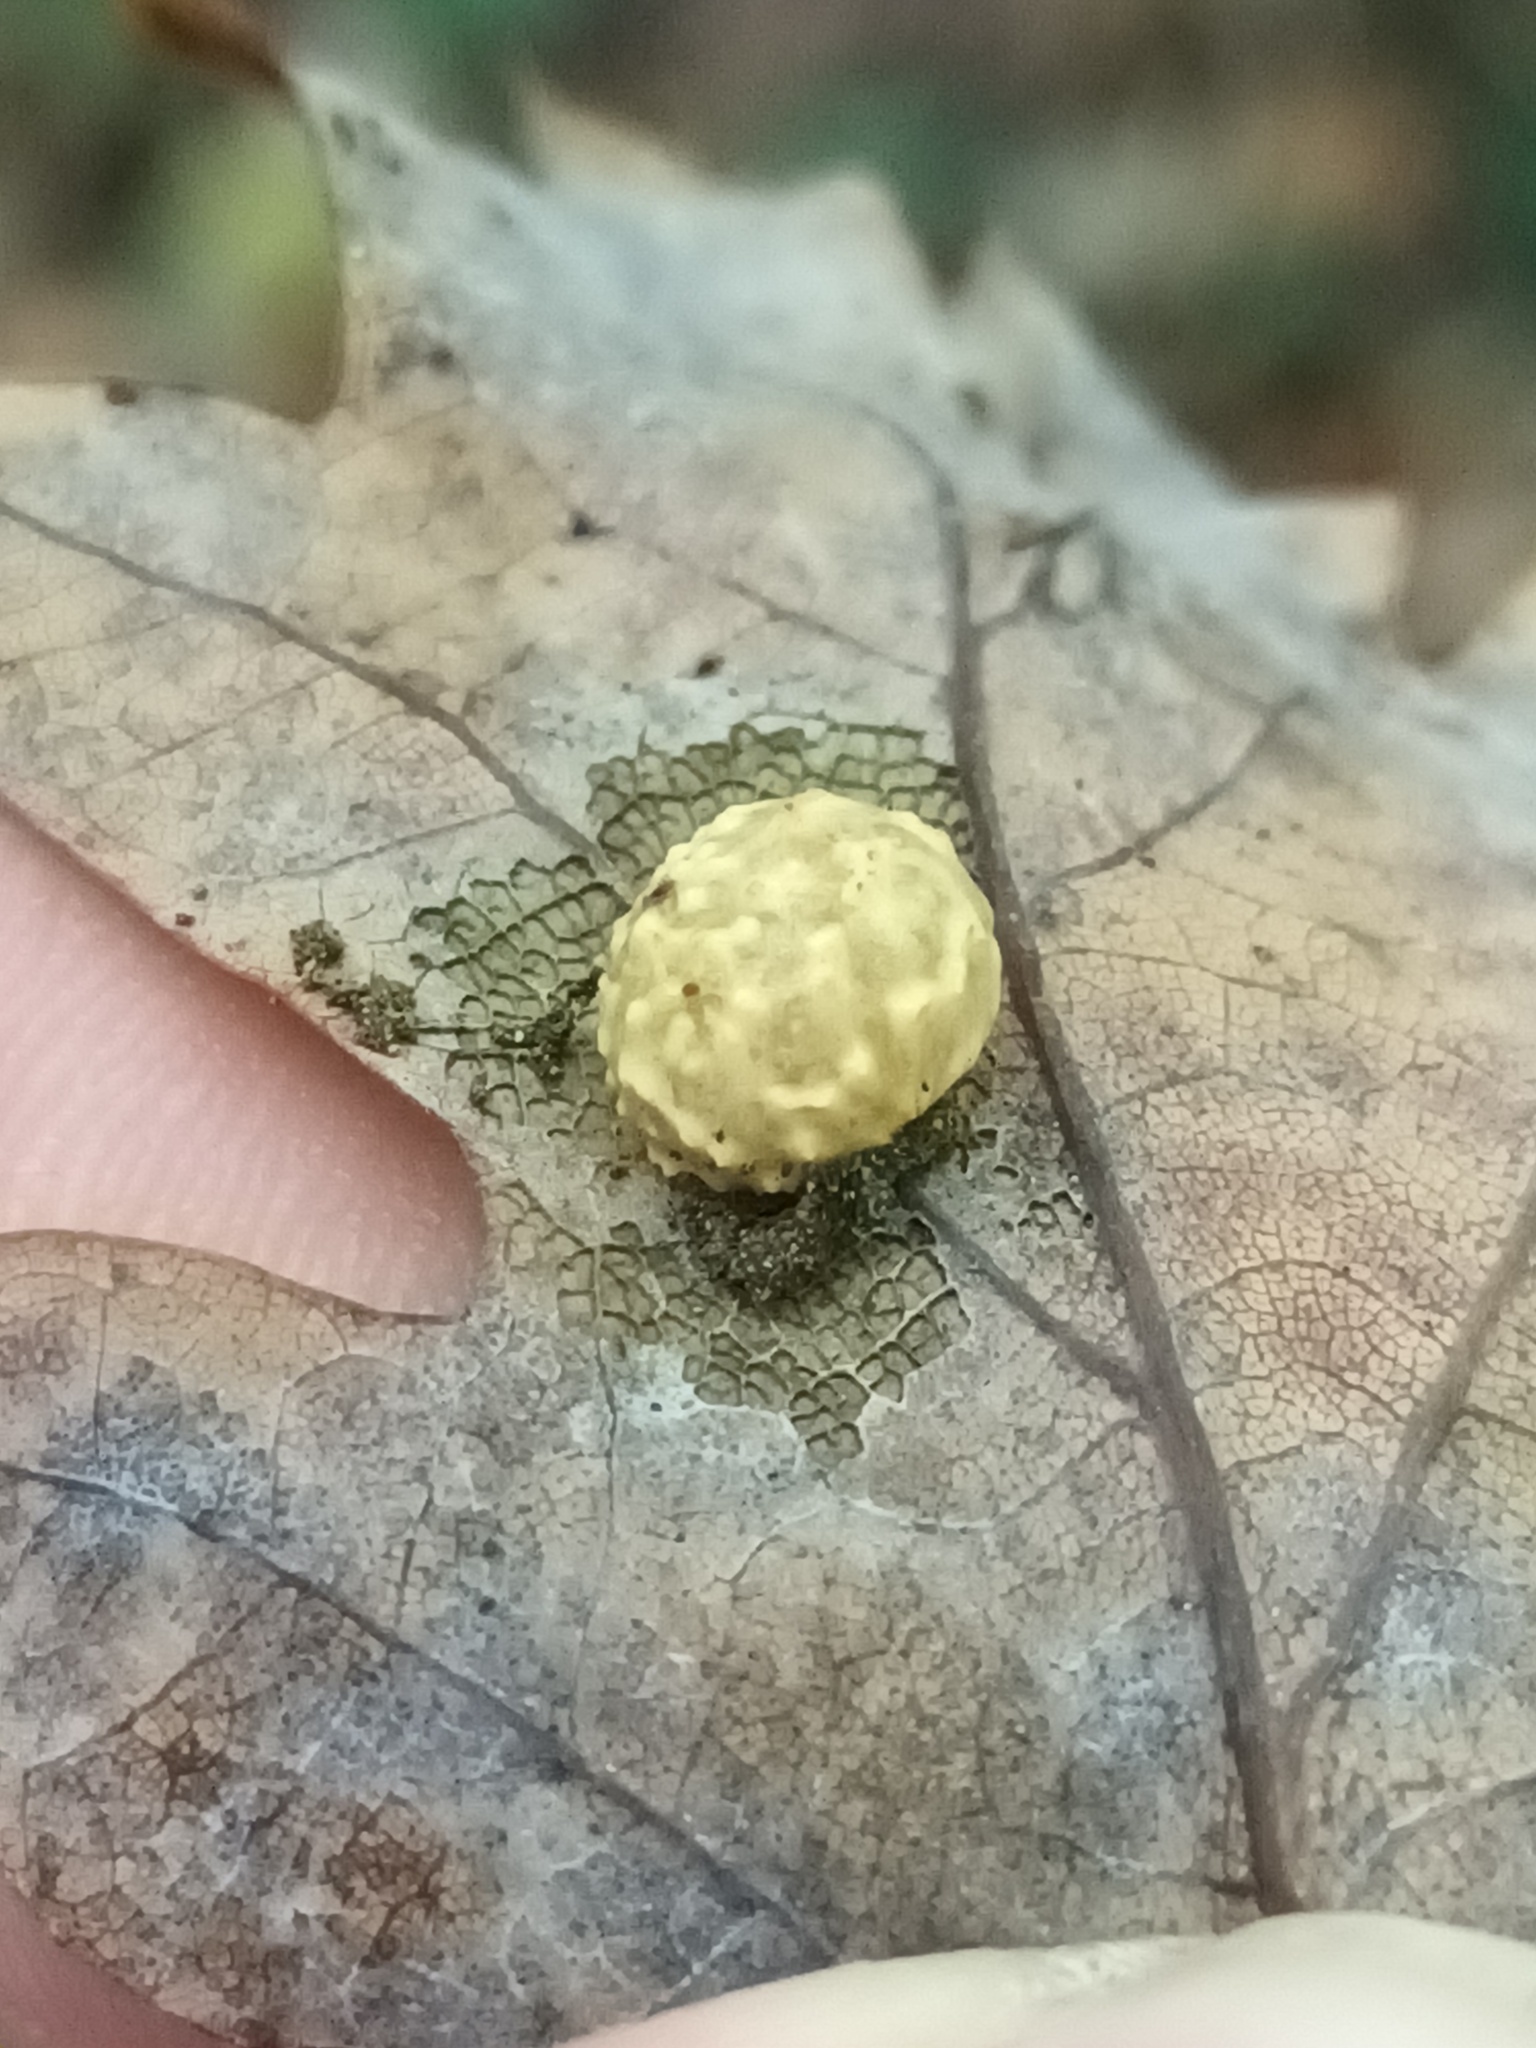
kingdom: Animalia
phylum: Arthropoda
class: Insecta
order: Hymenoptera
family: Cynipidae
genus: Cynips
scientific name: Cynips longiventris
